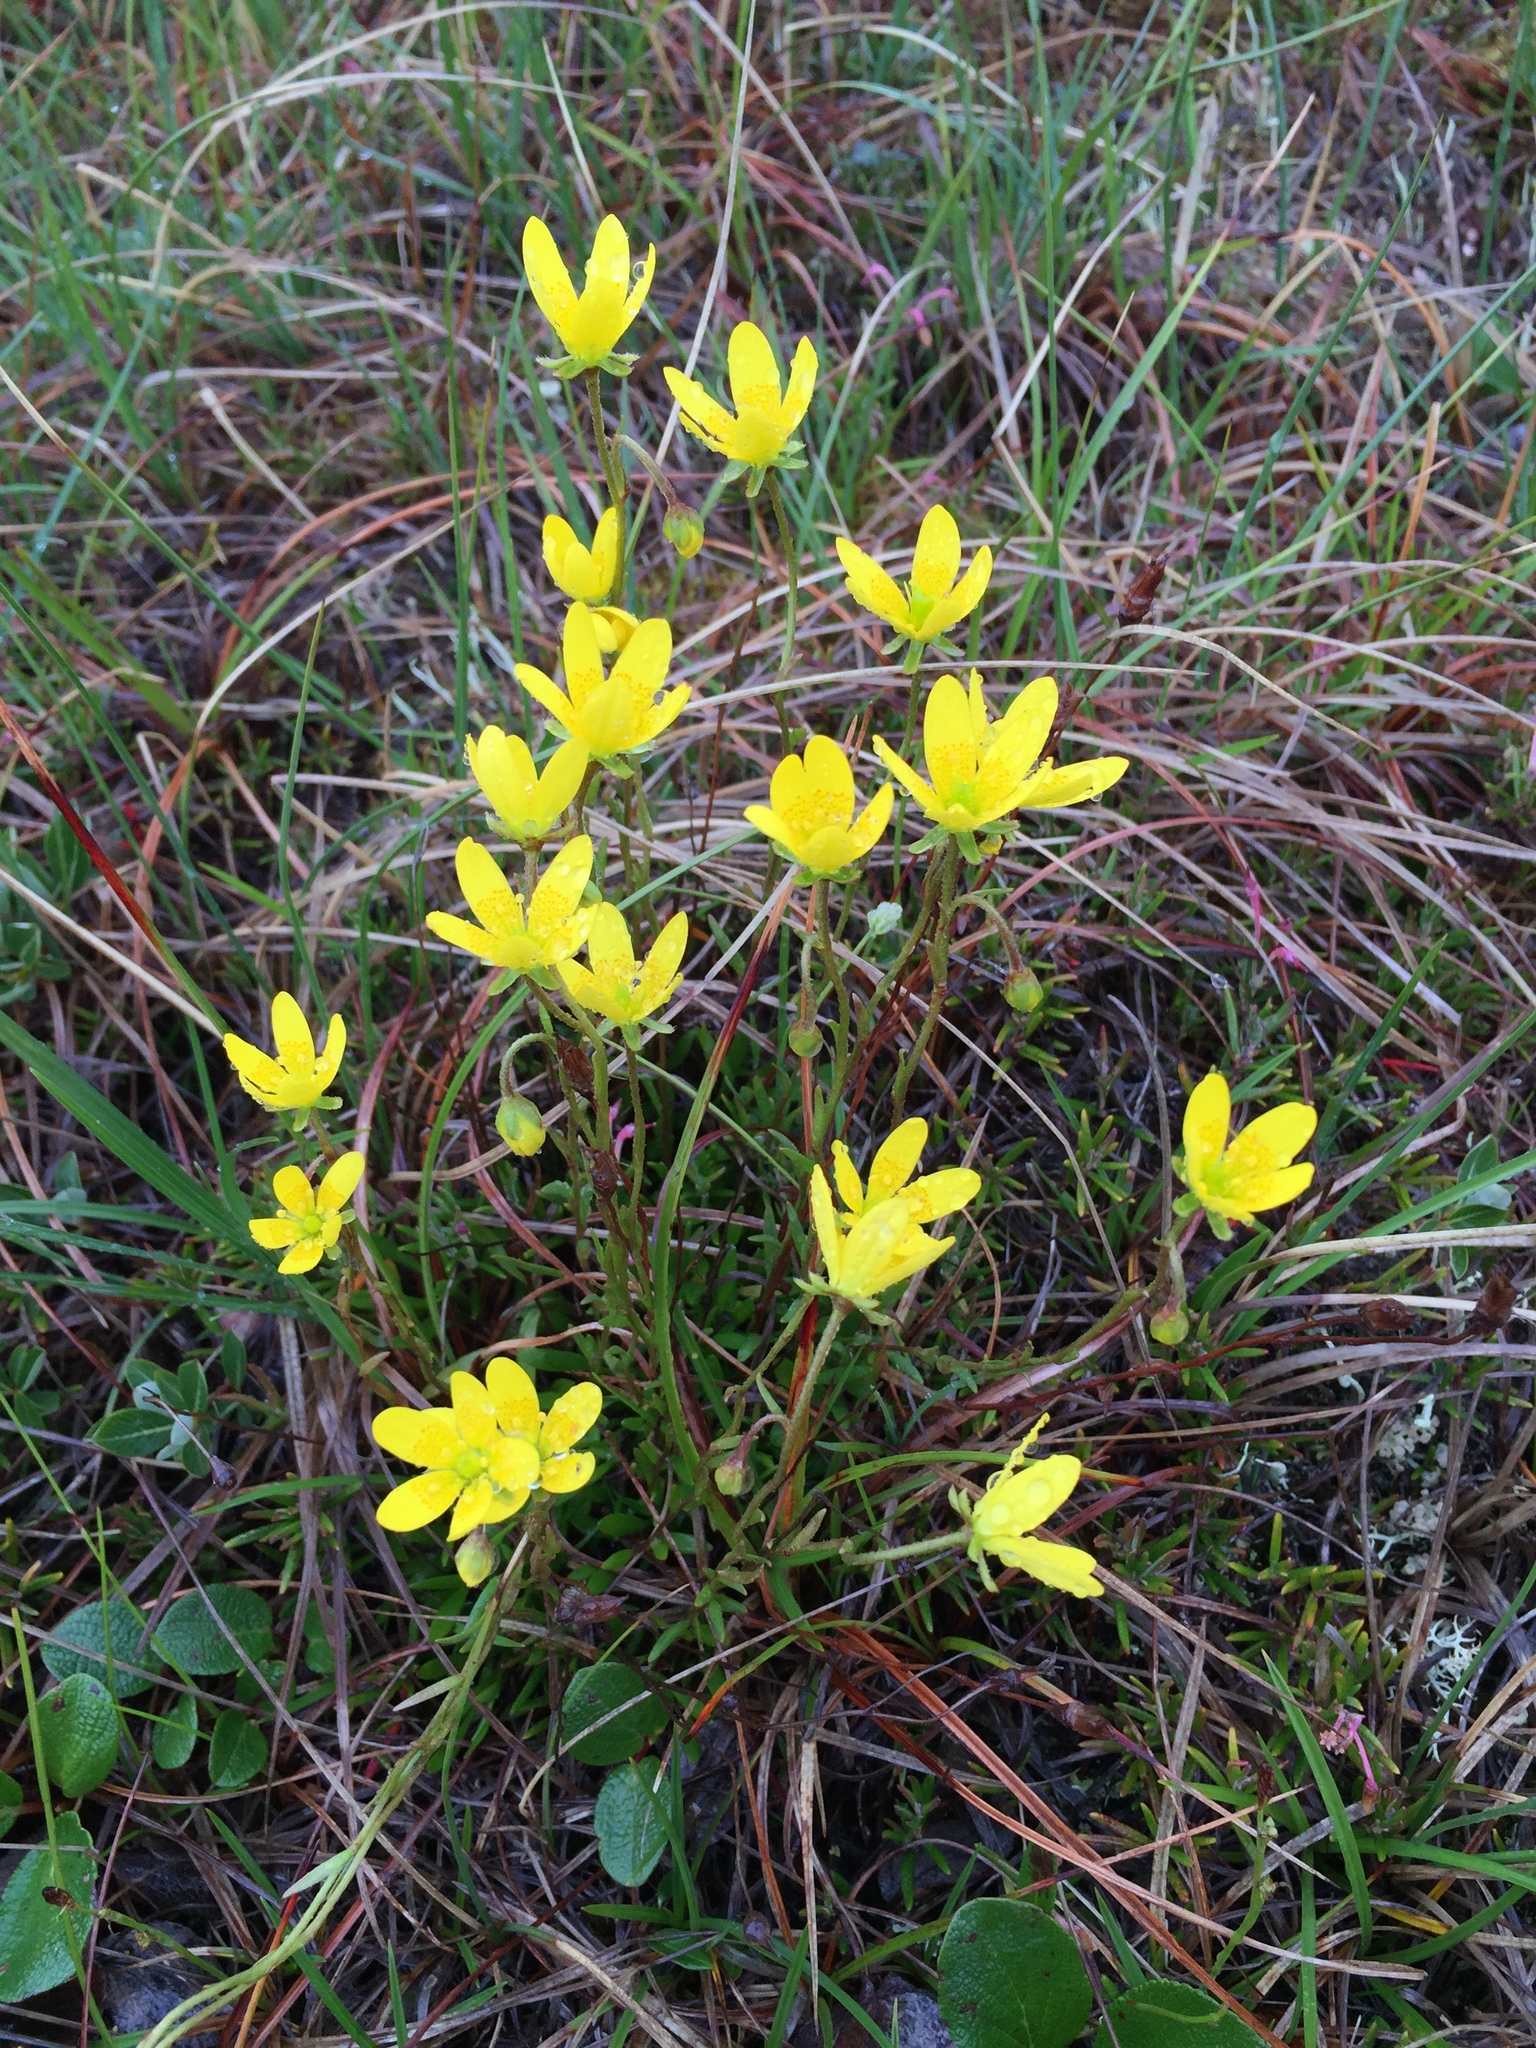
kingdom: Plantae
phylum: Tracheophyta
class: Magnoliopsida
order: Saxifragales
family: Saxifragaceae
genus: Saxifraga
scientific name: Saxifraga hirculus
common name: Yellow marsh saxifrage
